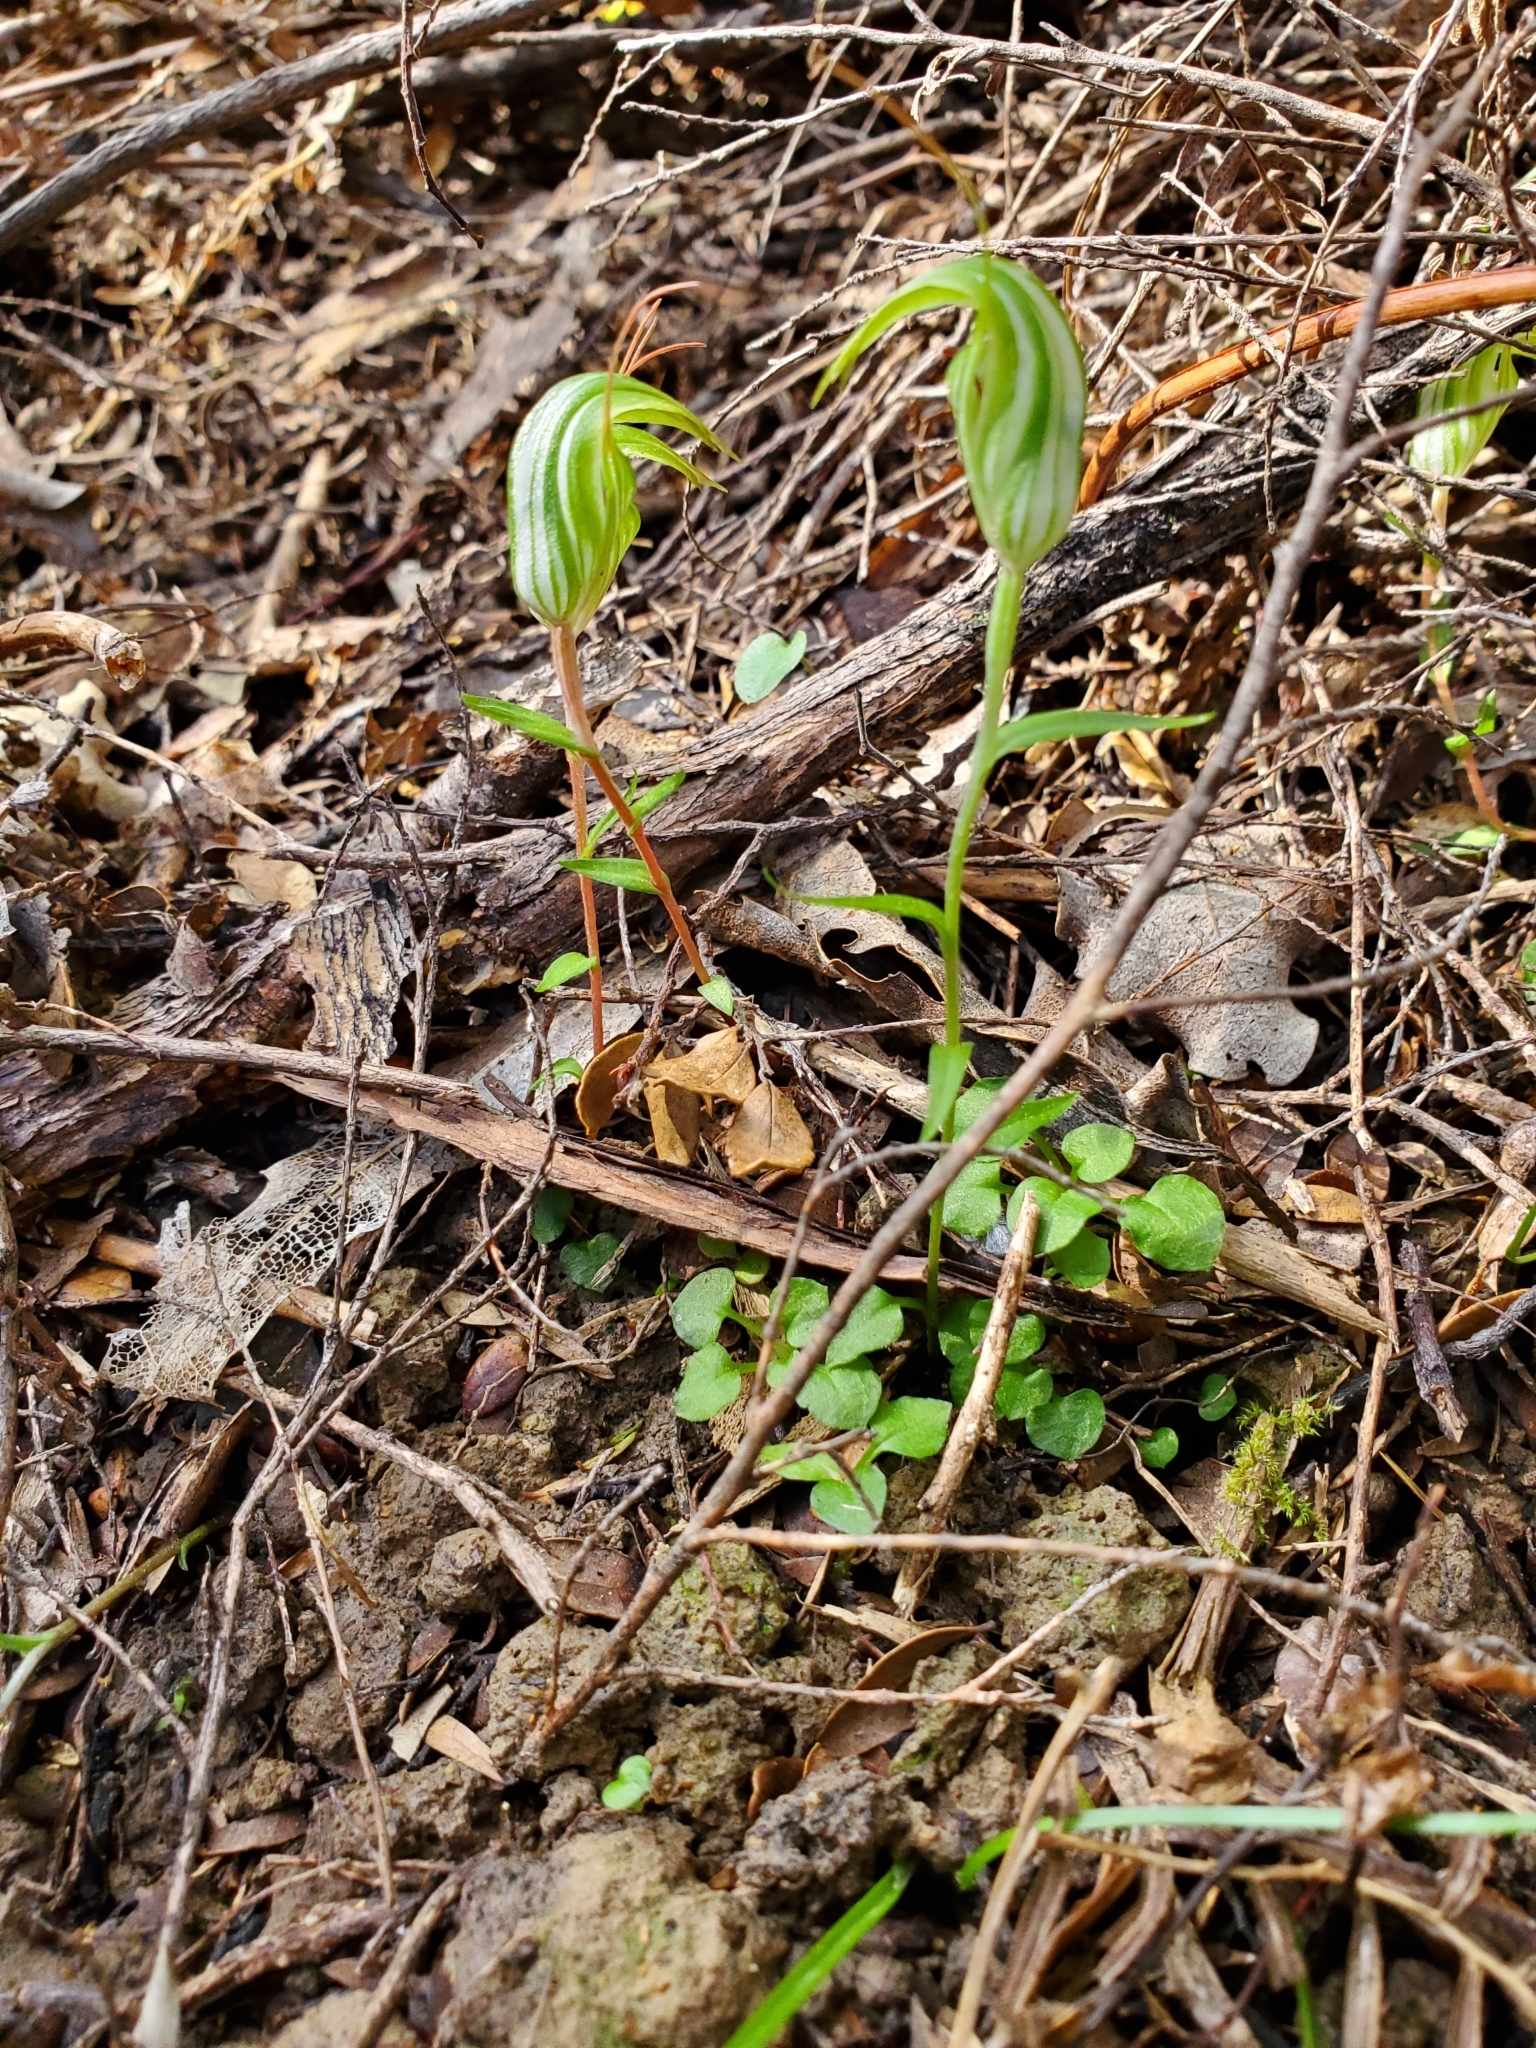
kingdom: Plantae
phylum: Tracheophyta
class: Liliopsida
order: Asparagales
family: Orchidaceae
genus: Pterostylis
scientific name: Pterostylis alobula
